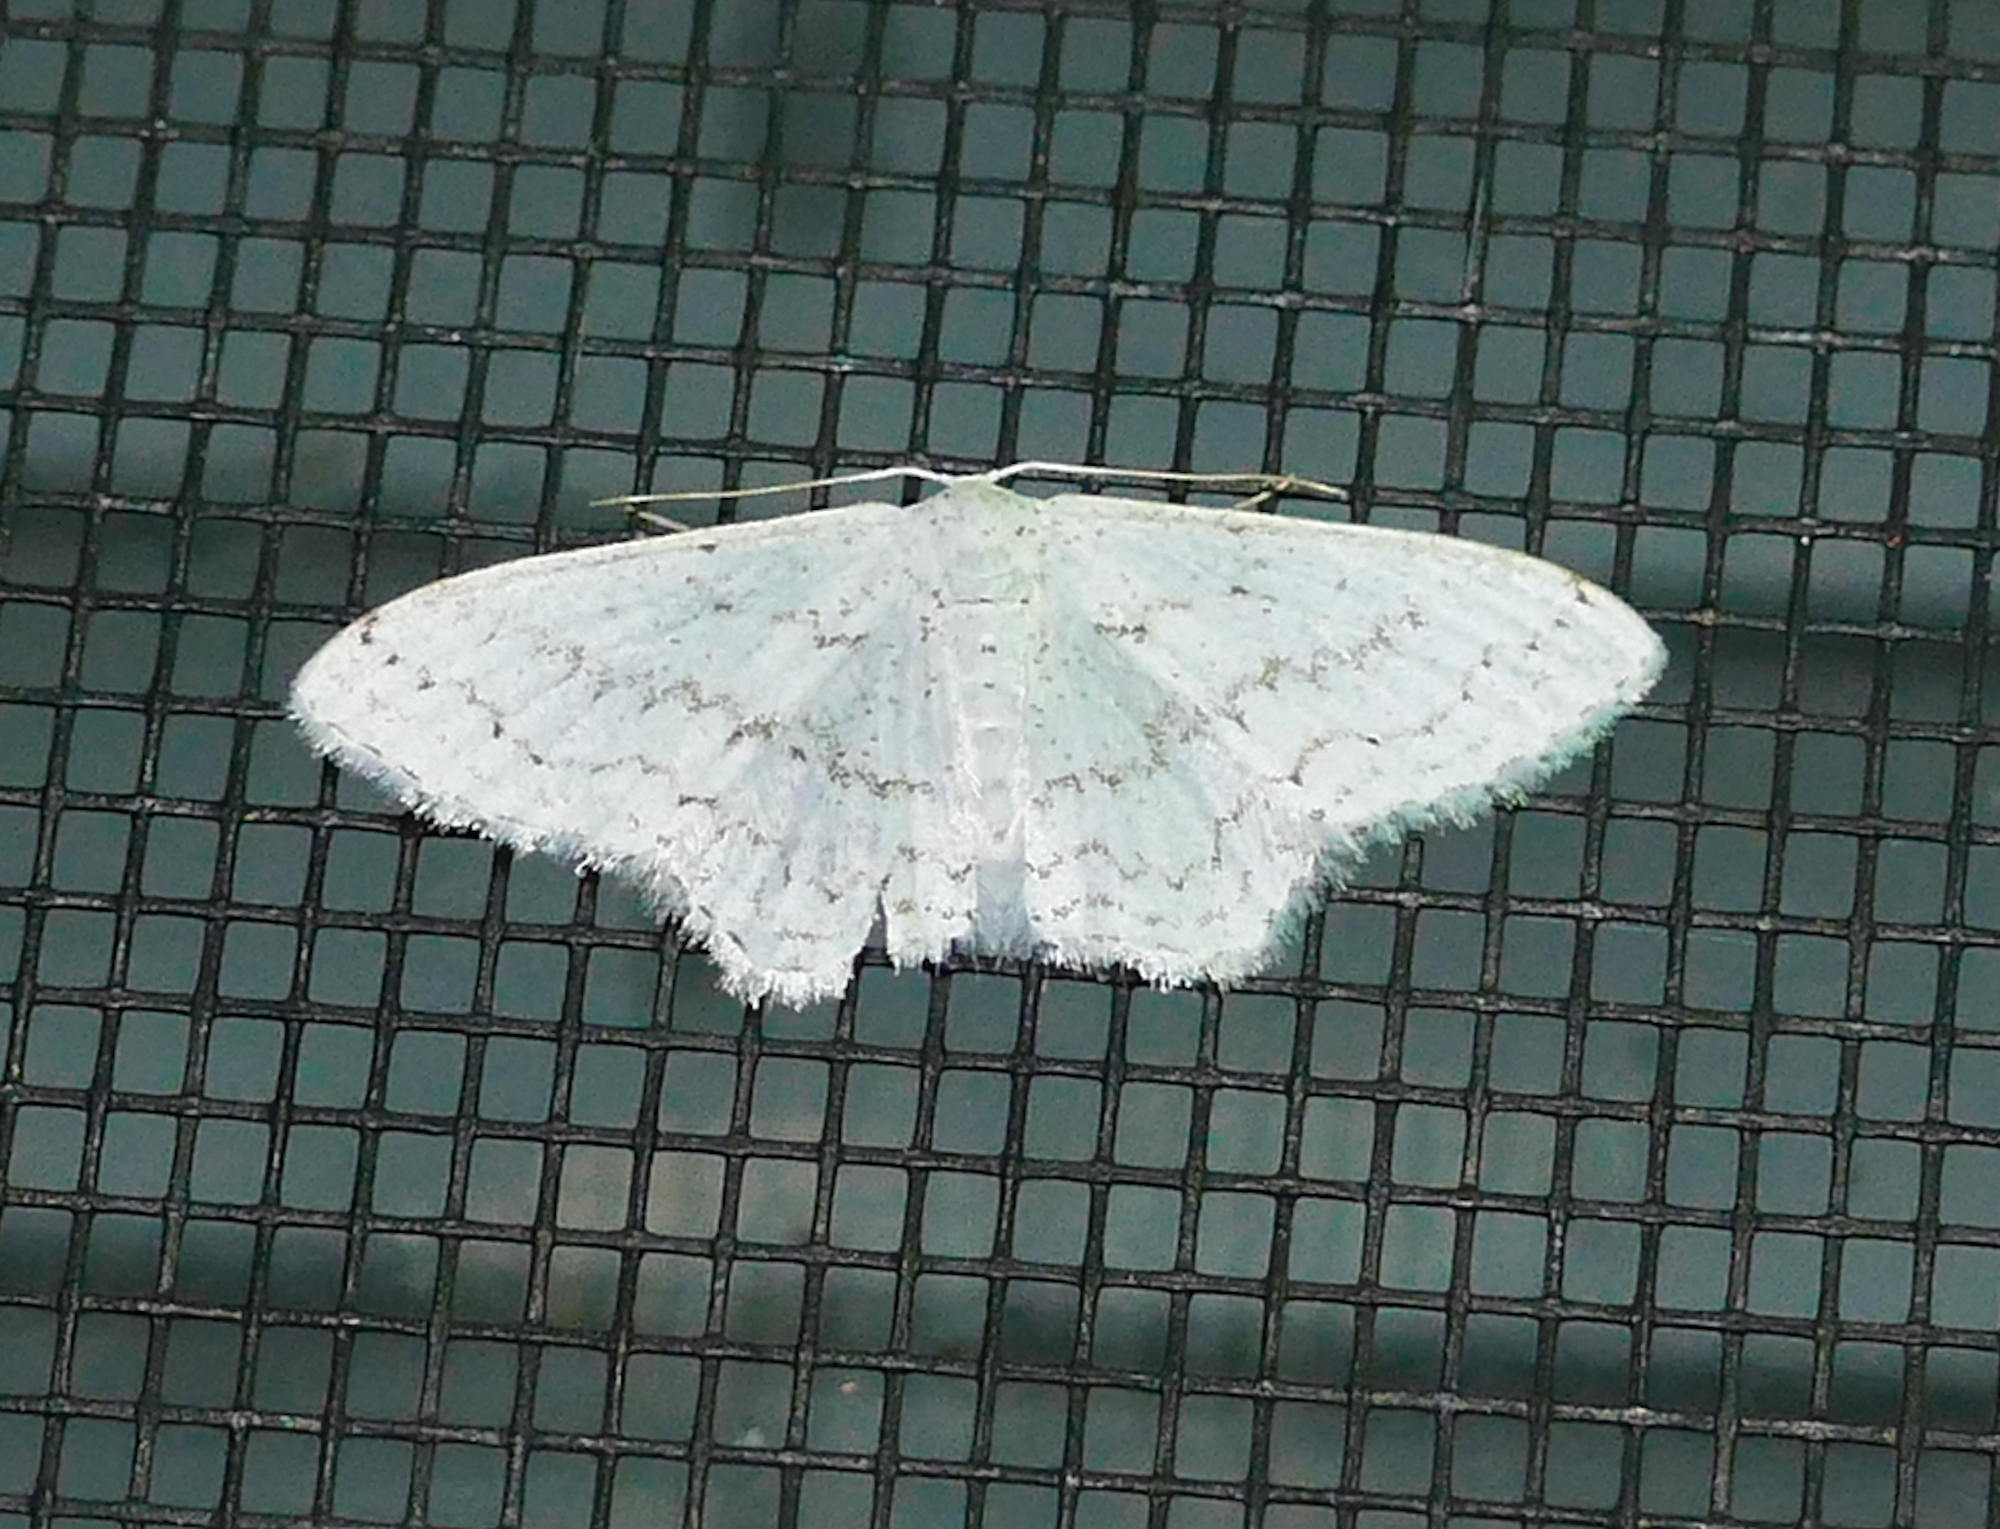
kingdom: Animalia
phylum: Arthropoda
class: Insecta
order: Lepidoptera
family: Geometridae
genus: Idaea
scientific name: Idaea tacturata
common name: Dot-lined wave
